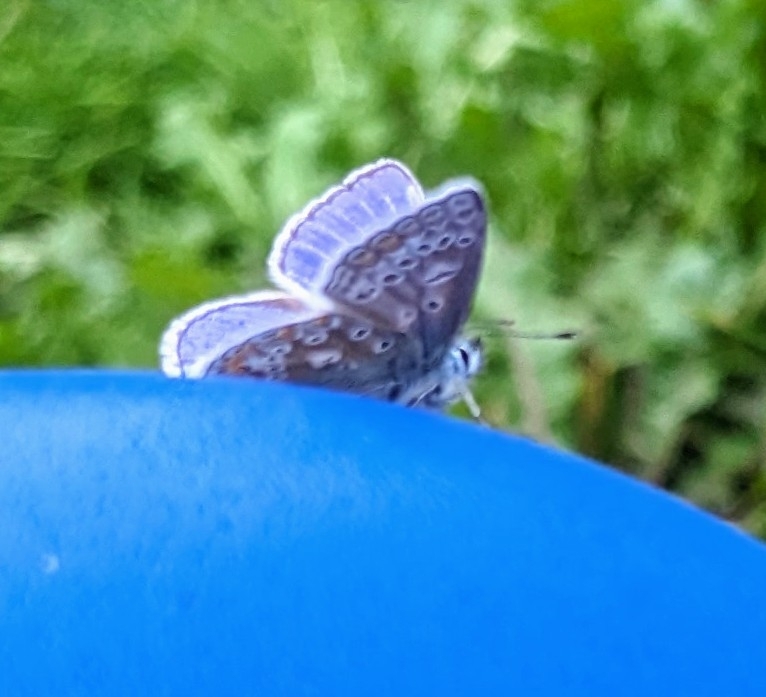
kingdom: Animalia
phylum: Arthropoda
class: Insecta
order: Lepidoptera
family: Lycaenidae
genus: Polyommatus
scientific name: Polyommatus icarus
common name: Common blue
